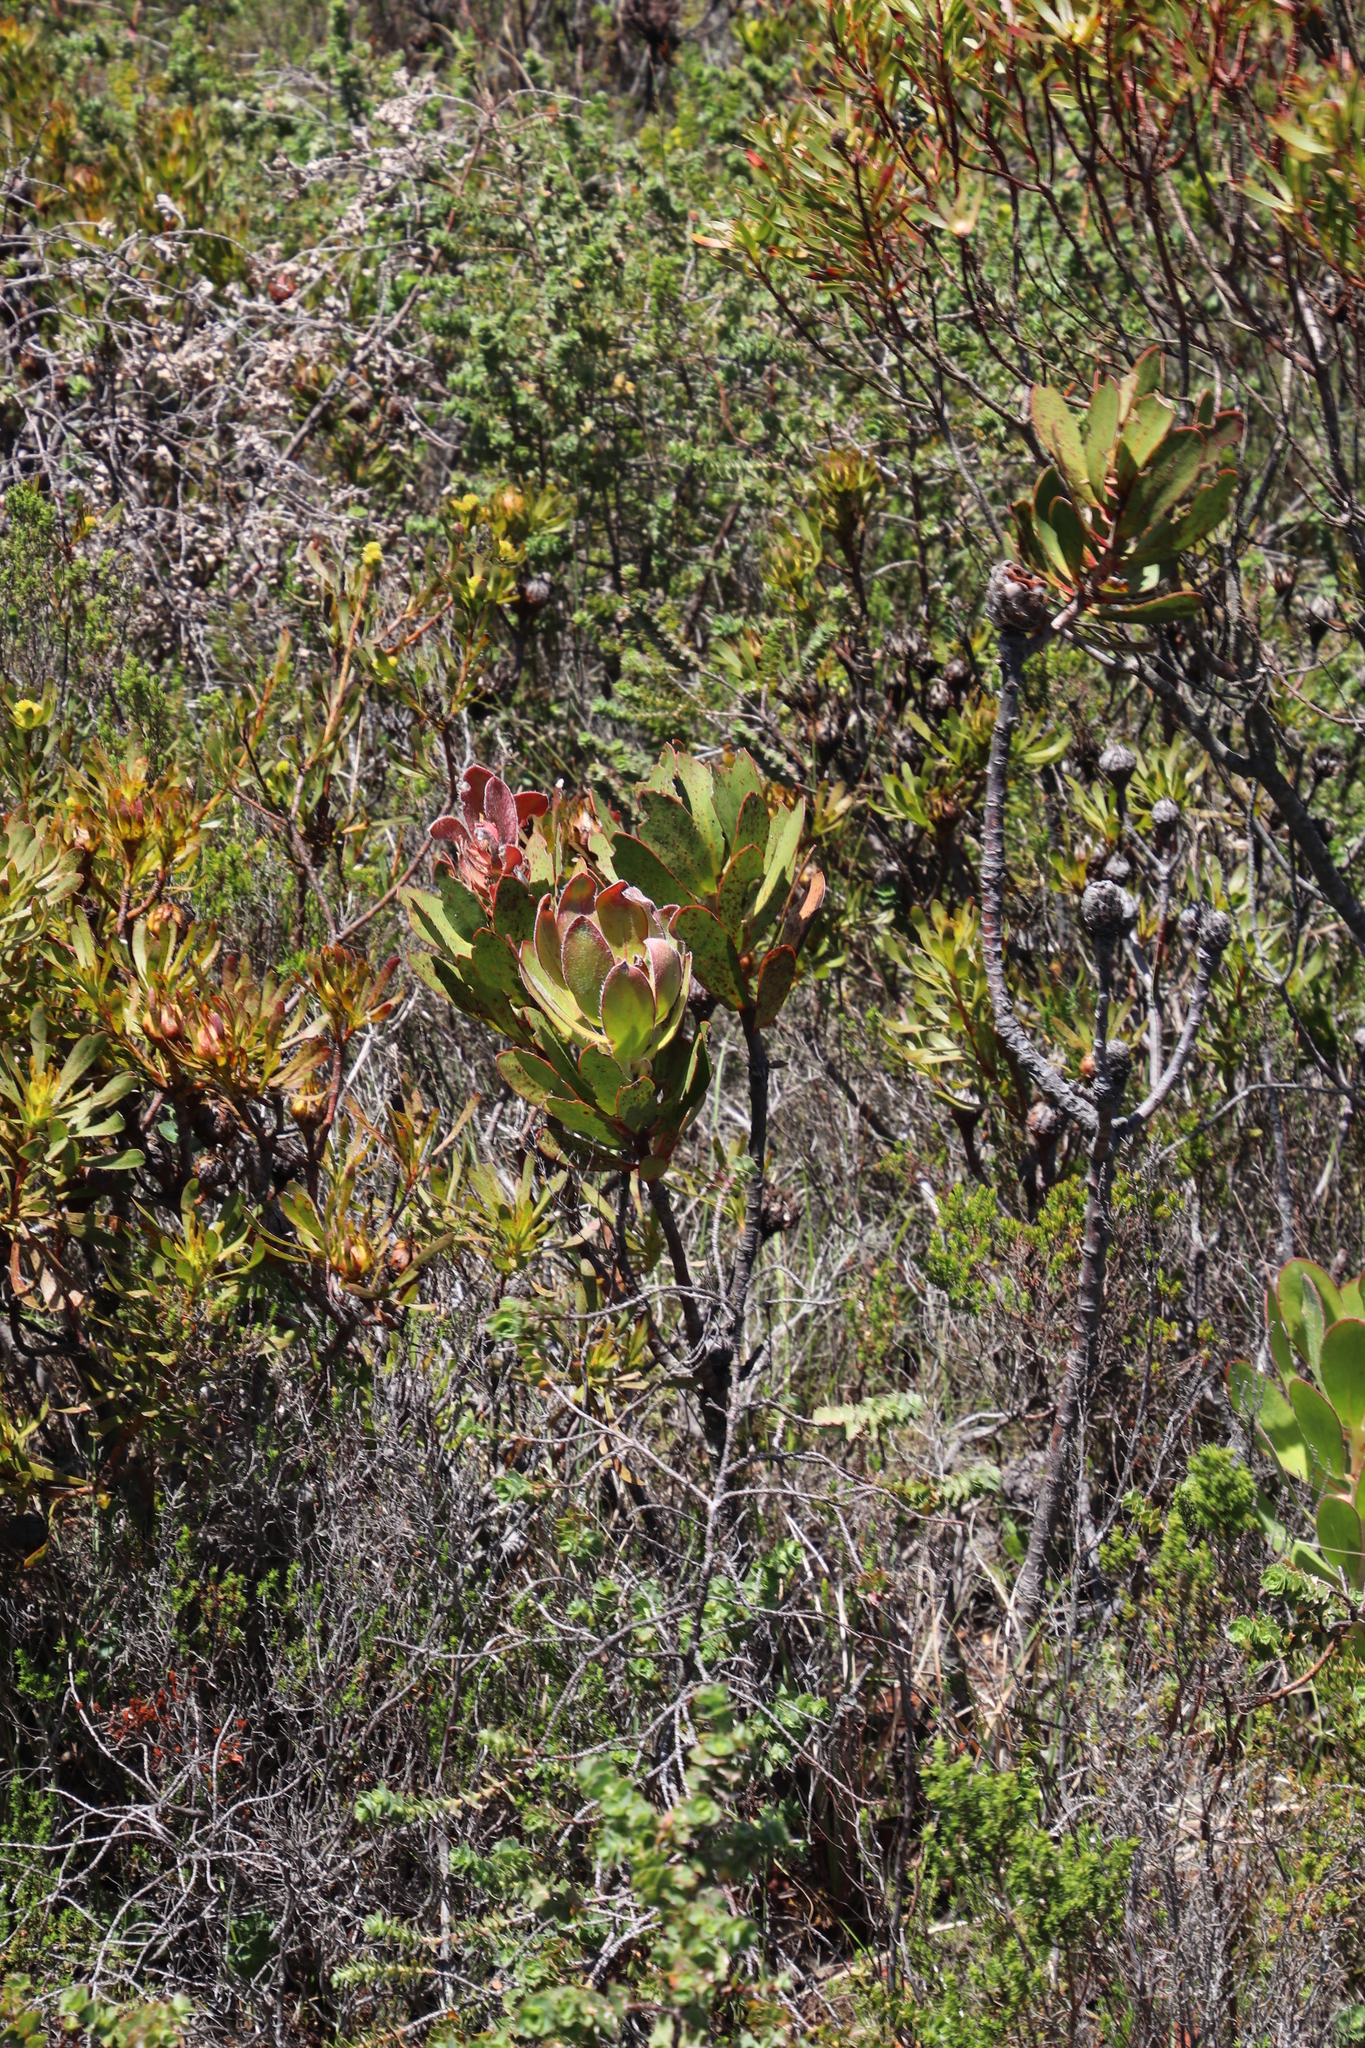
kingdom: Plantae
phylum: Tracheophyta
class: Magnoliopsida
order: Proteales
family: Proteaceae
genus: Protea
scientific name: Protea speciosa
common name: Brown-beard sugarbush
